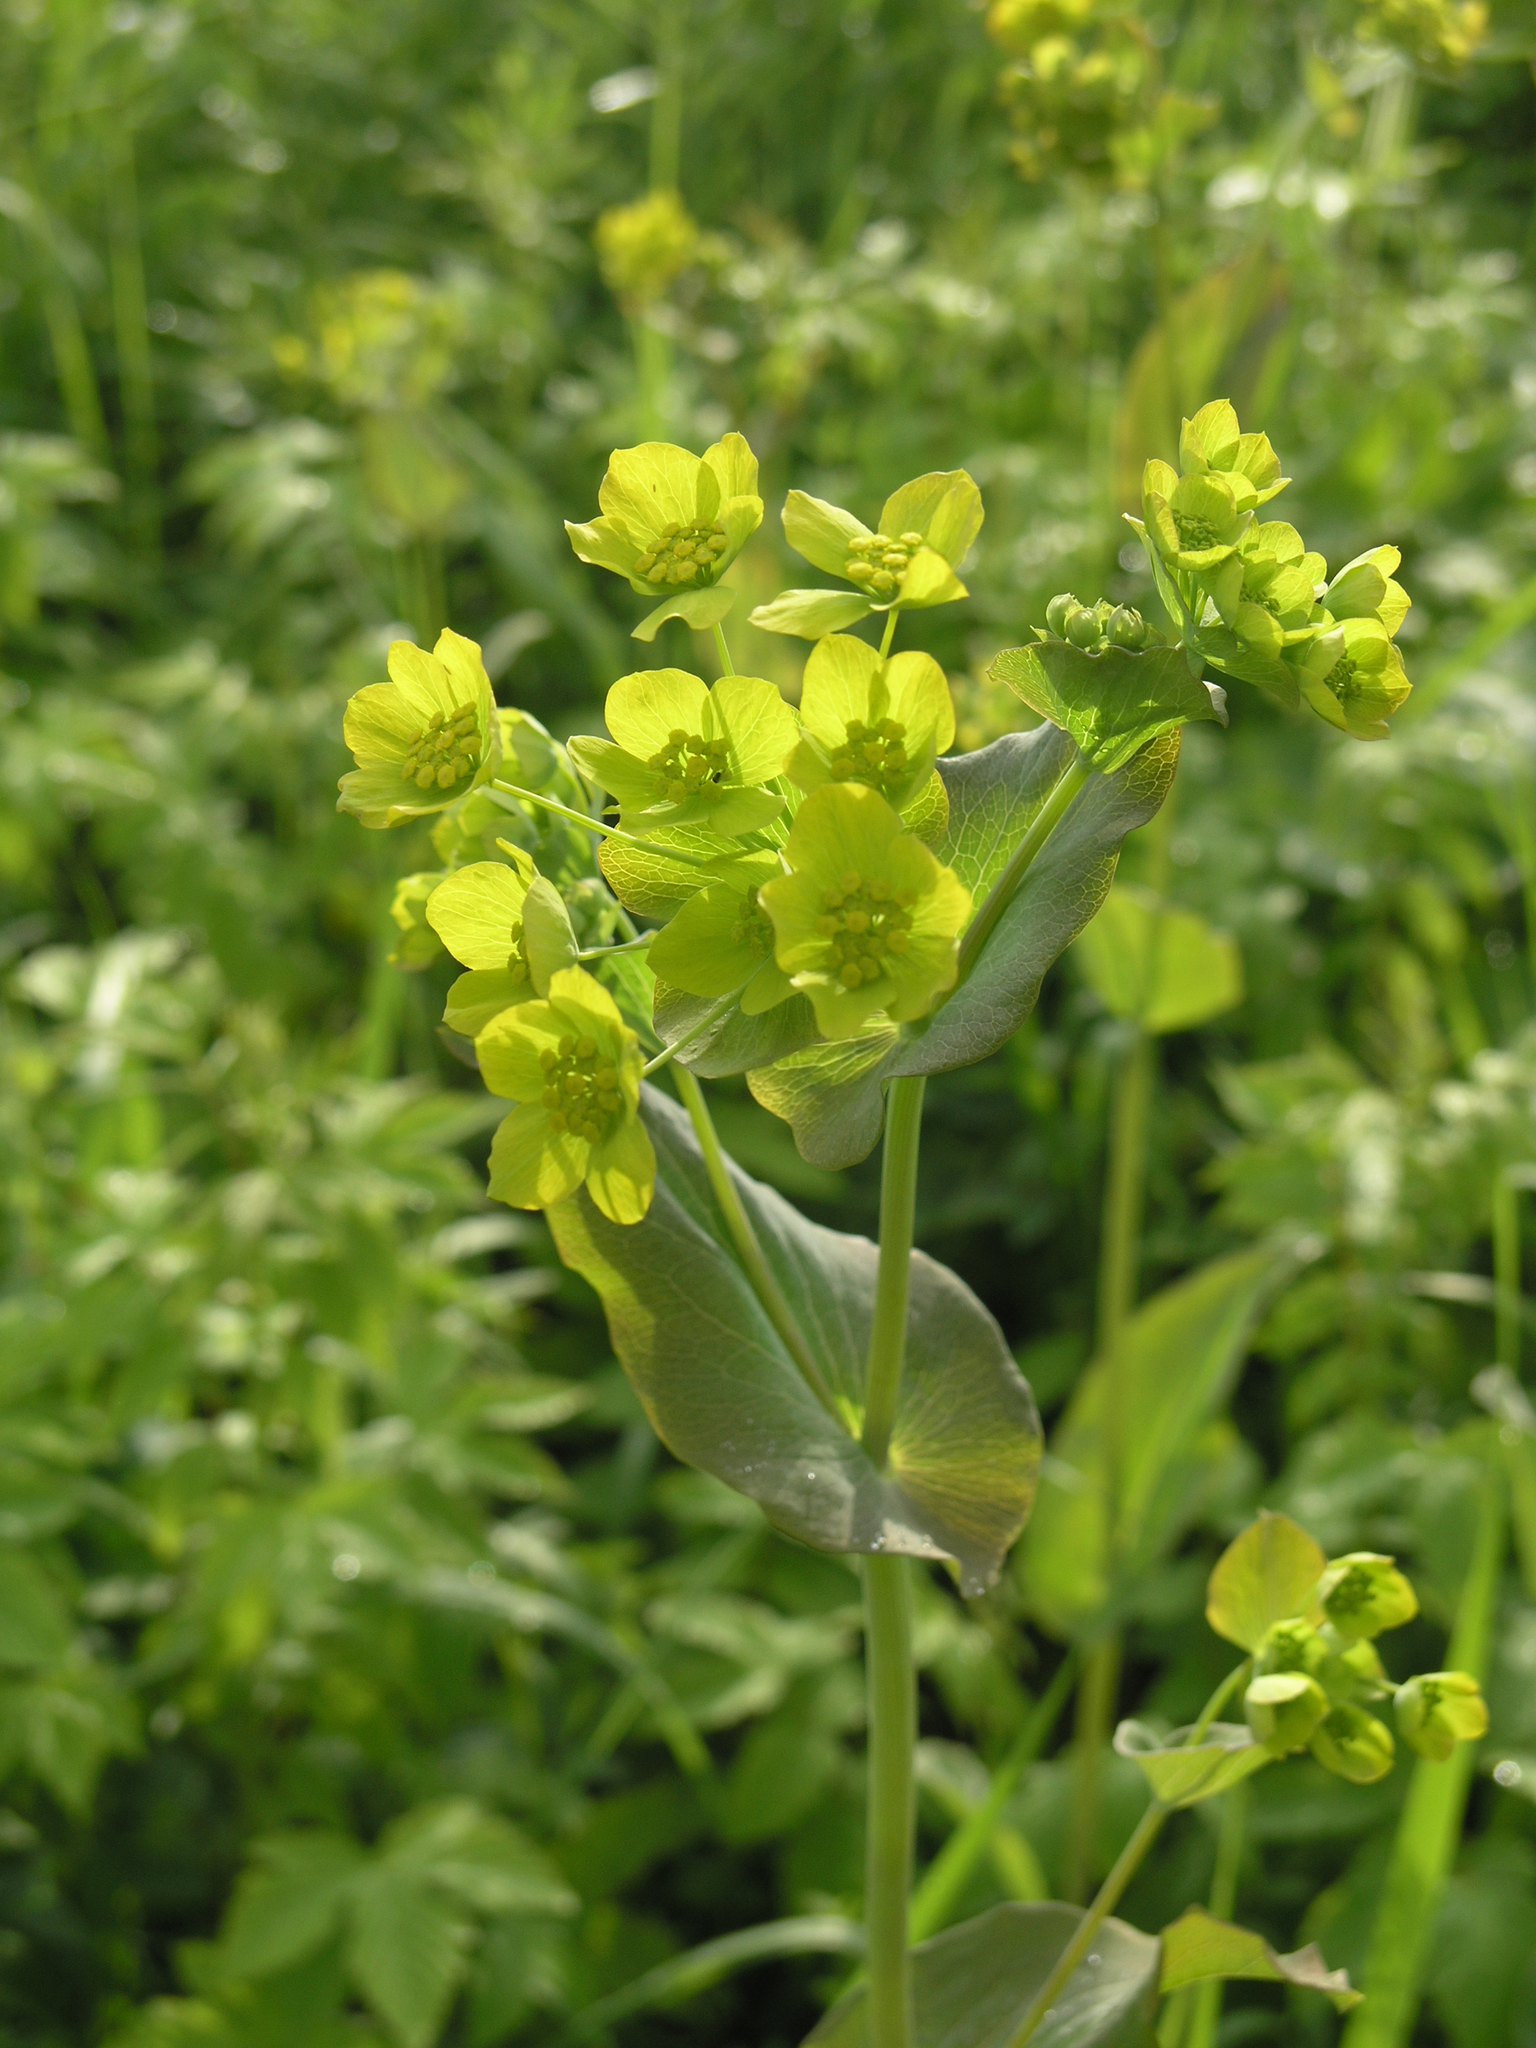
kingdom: Plantae
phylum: Tracheophyta
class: Magnoliopsida
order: Apiales
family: Apiaceae
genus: Bupleurum
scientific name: Bupleurum aureum
